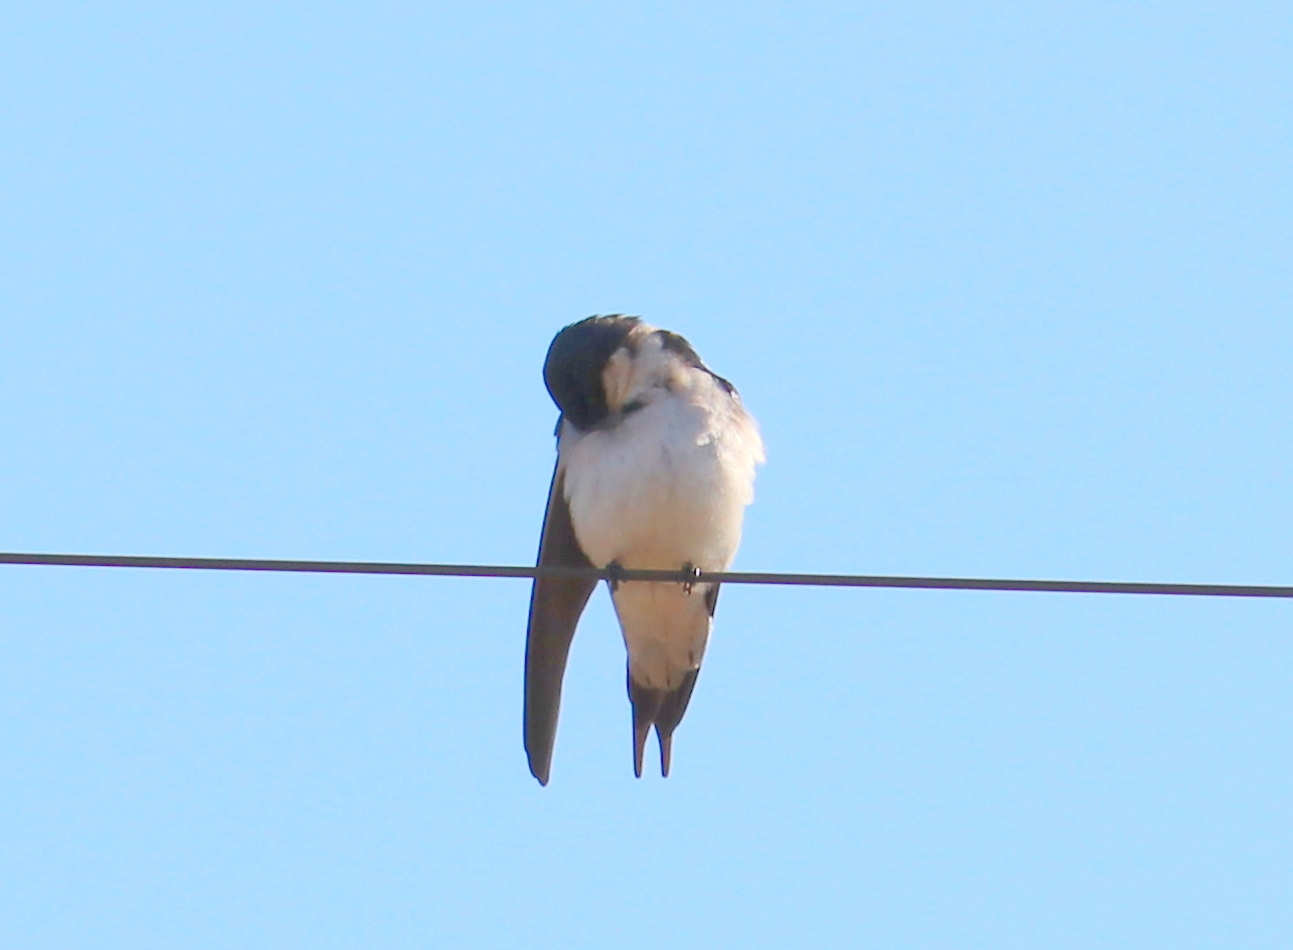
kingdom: Animalia
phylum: Chordata
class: Aves
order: Passeriformes
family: Hirundinidae
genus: Hirundo
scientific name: Hirundo dimidiata
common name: Pearl-breasted swallow
